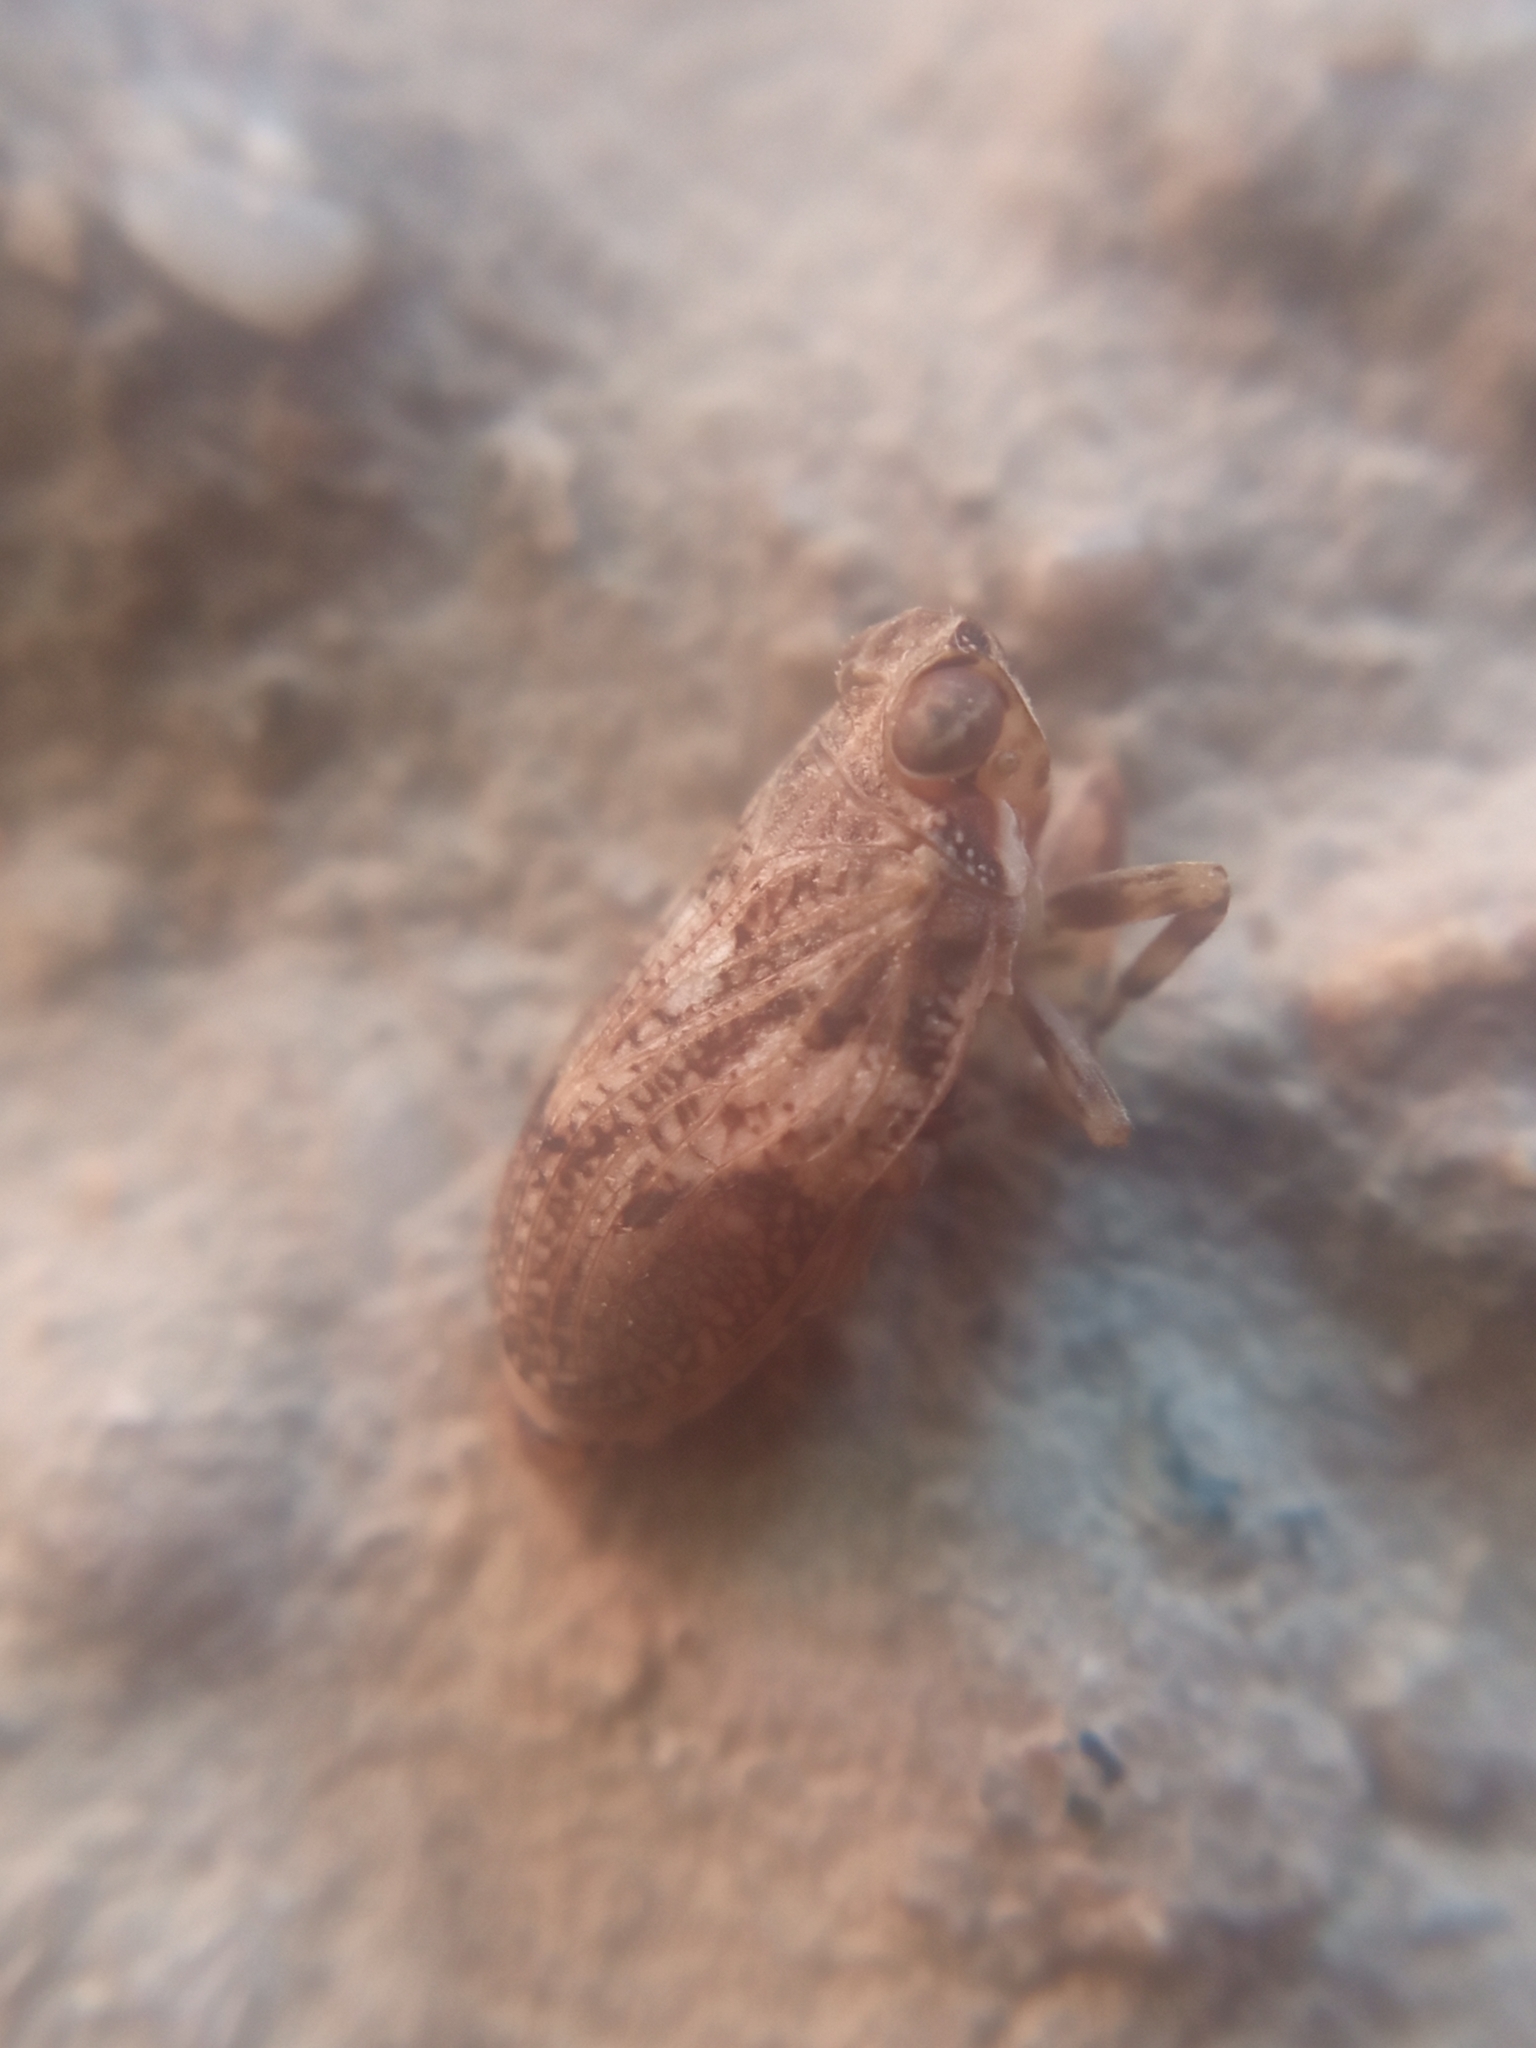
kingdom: Animalia
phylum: Arthropoda
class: Insecta
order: Hemiptera
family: Issidae
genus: Issus
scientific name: Issus coleoptratus
